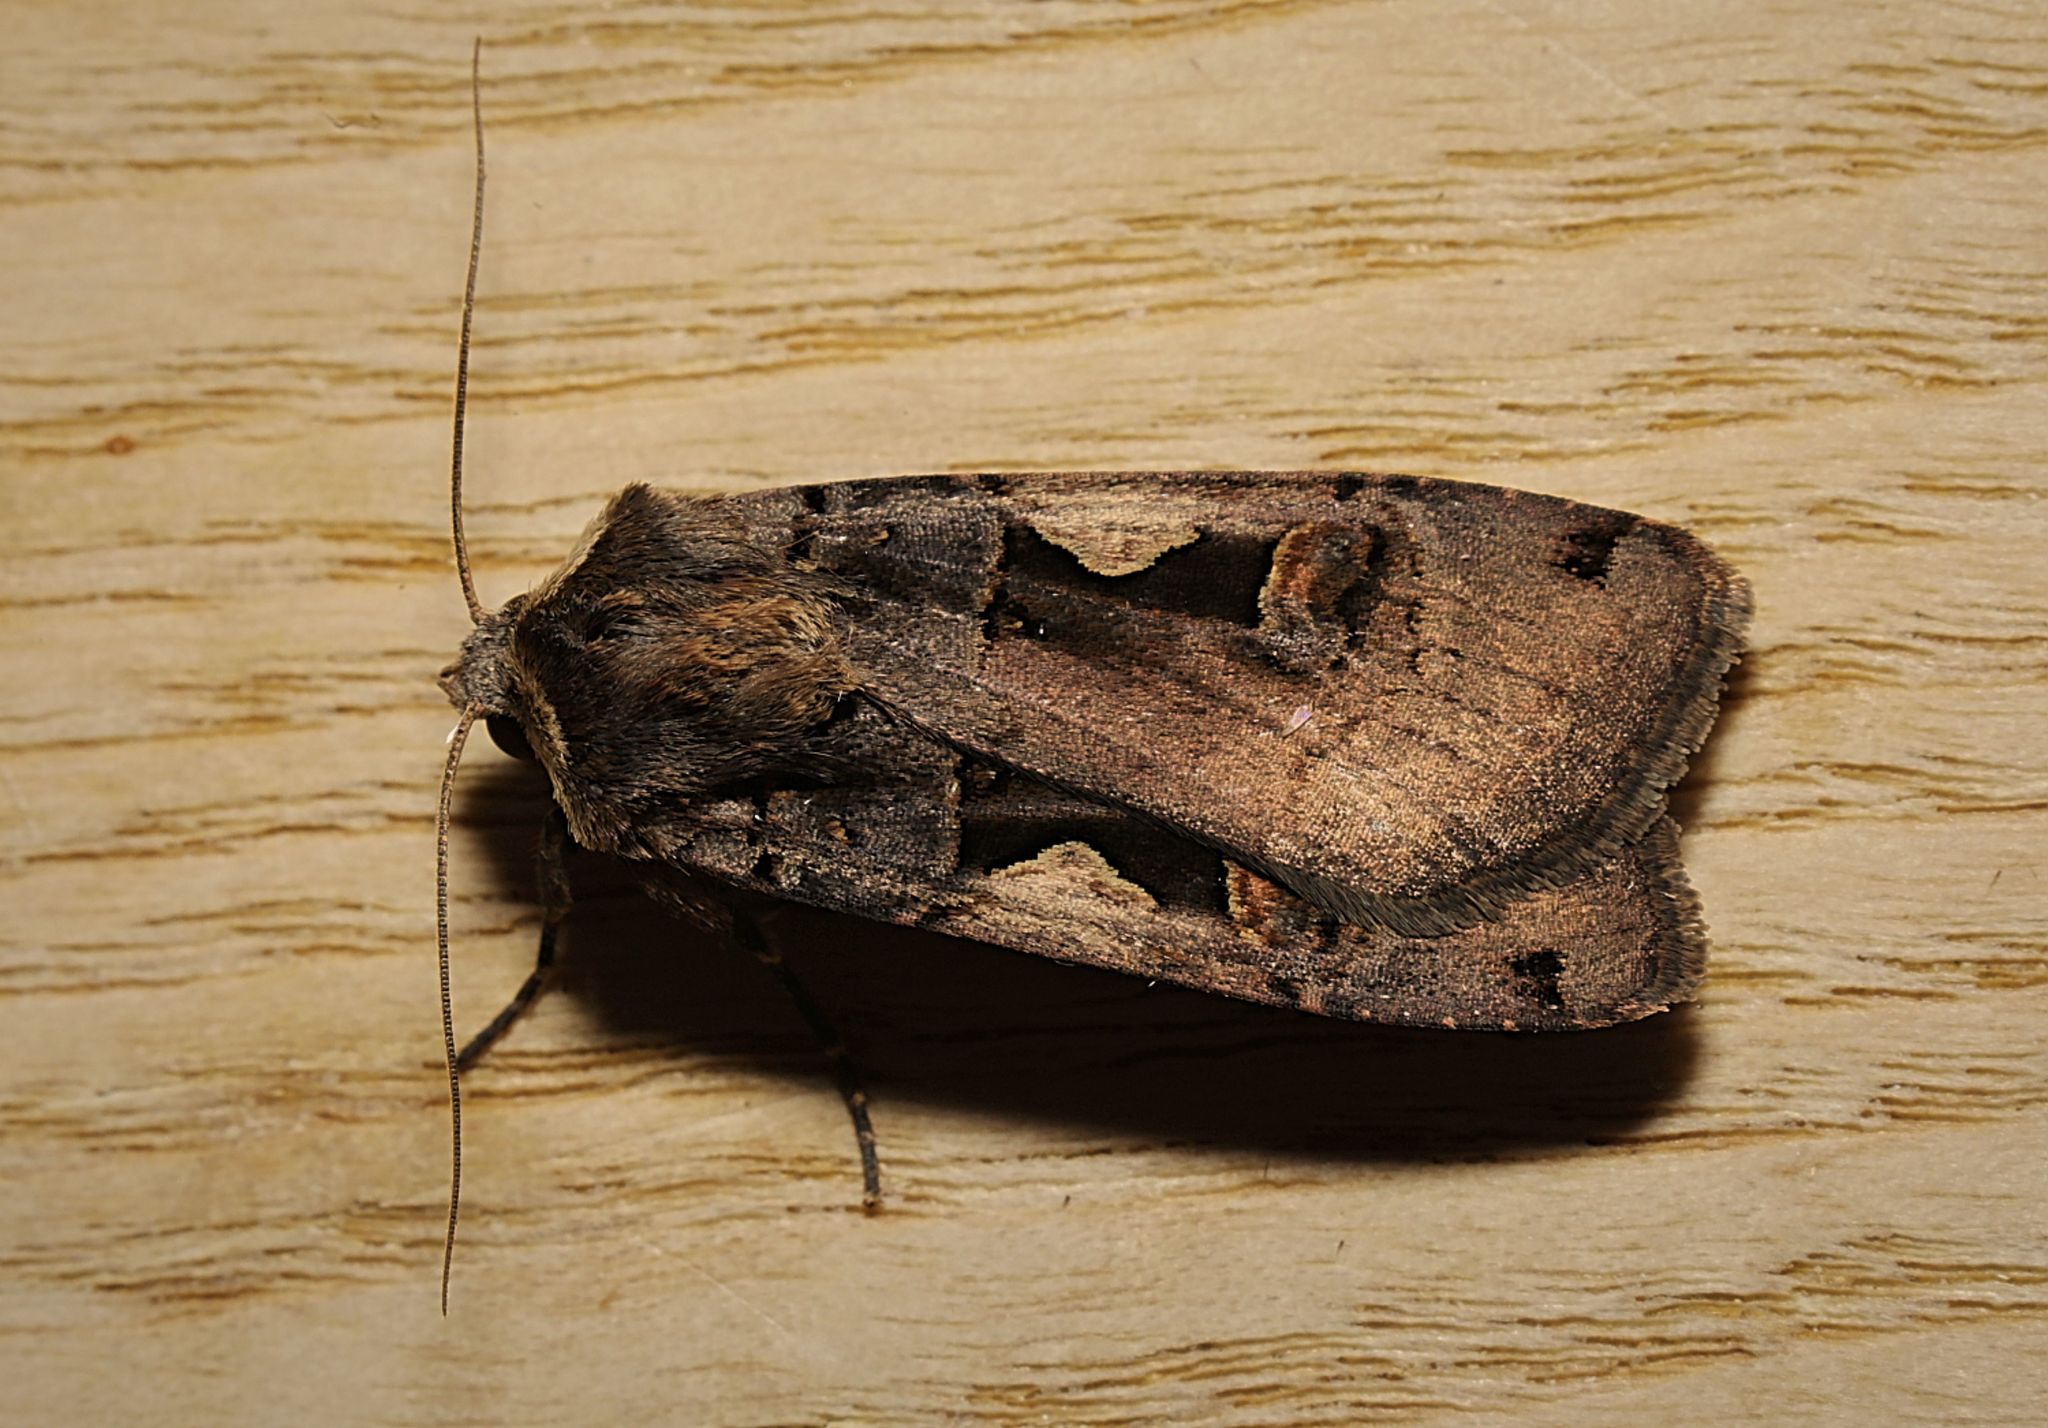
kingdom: Animalia
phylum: Arthropoda
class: Insecta
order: Lepidoptera
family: Noctuidae
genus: Xestia
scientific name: Xestia c-nigrum
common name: Setaceous hebrew character
